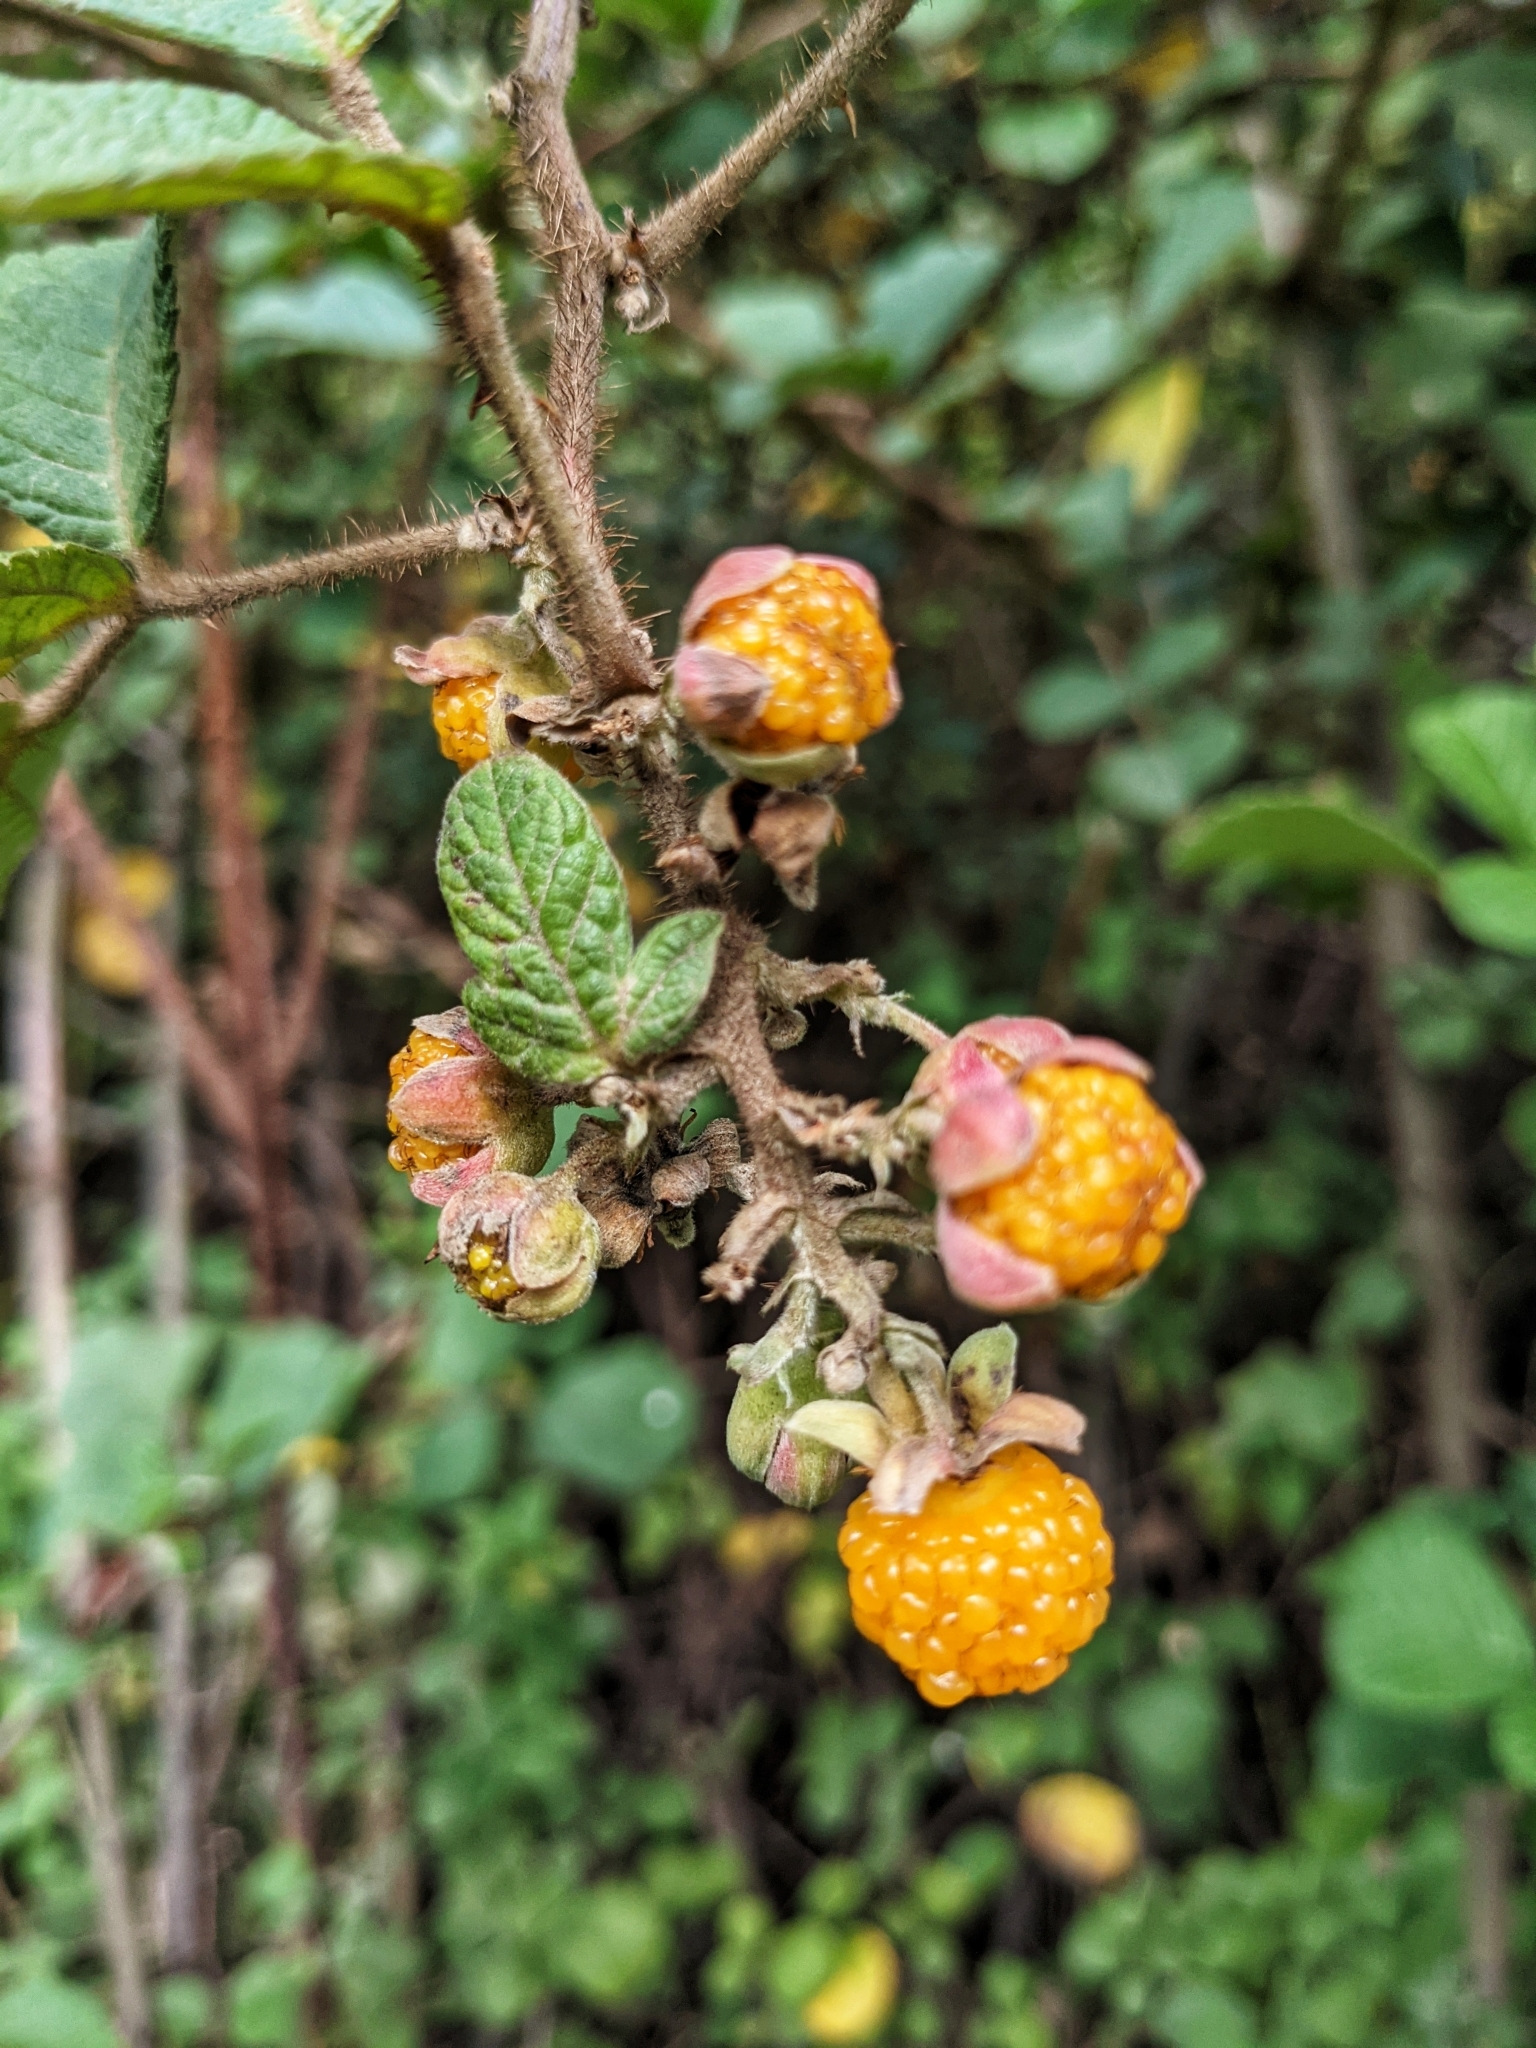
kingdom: Plantae
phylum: Tracheophyta
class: Magnoliopsida
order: Rosales
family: Rosaceae
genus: Rubus
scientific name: Rubus ellipticus
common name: Cheeseberry
